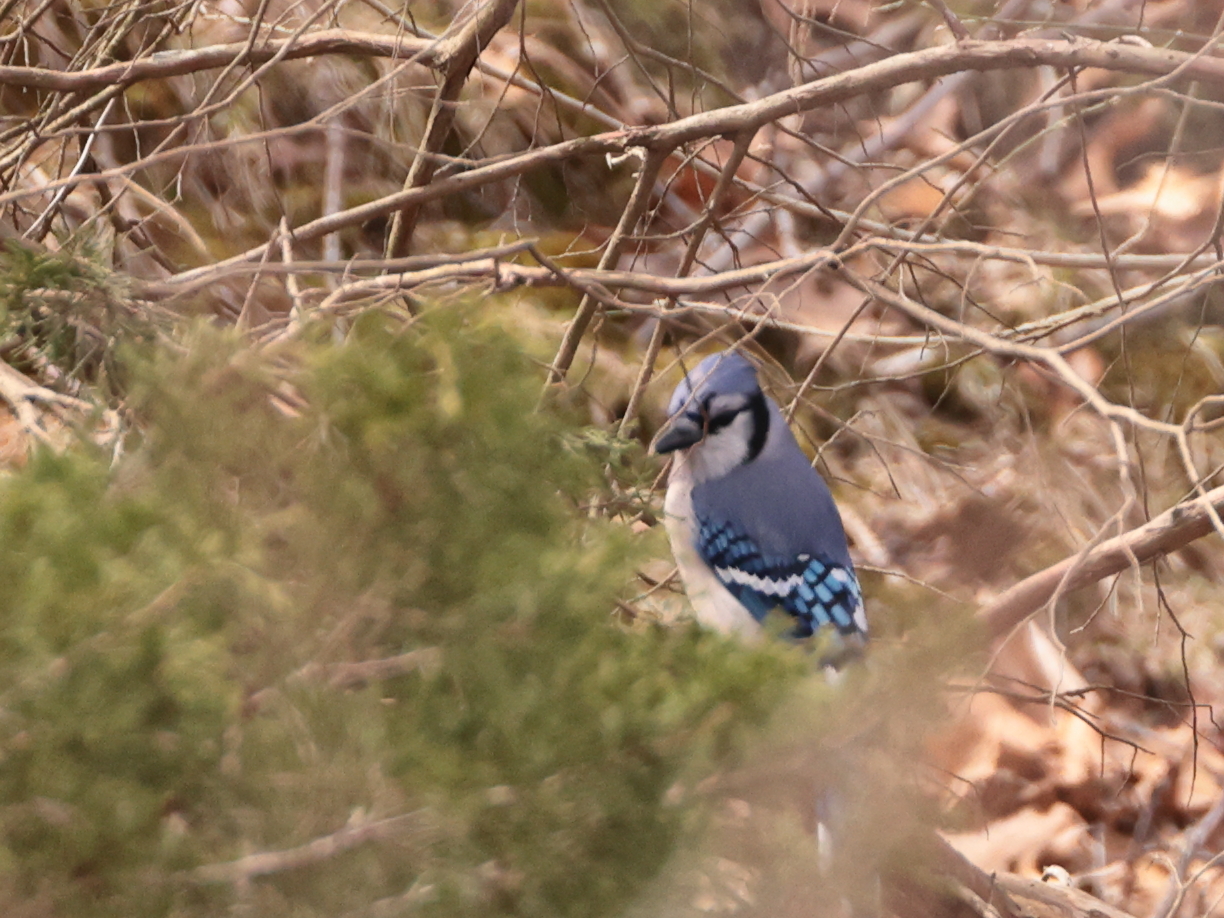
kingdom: Animalia
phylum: Chordata
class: Aves
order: Passeriformes
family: Corvidae
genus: Cyanocitta
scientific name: Cyanocitta cristata
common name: Blue jay
